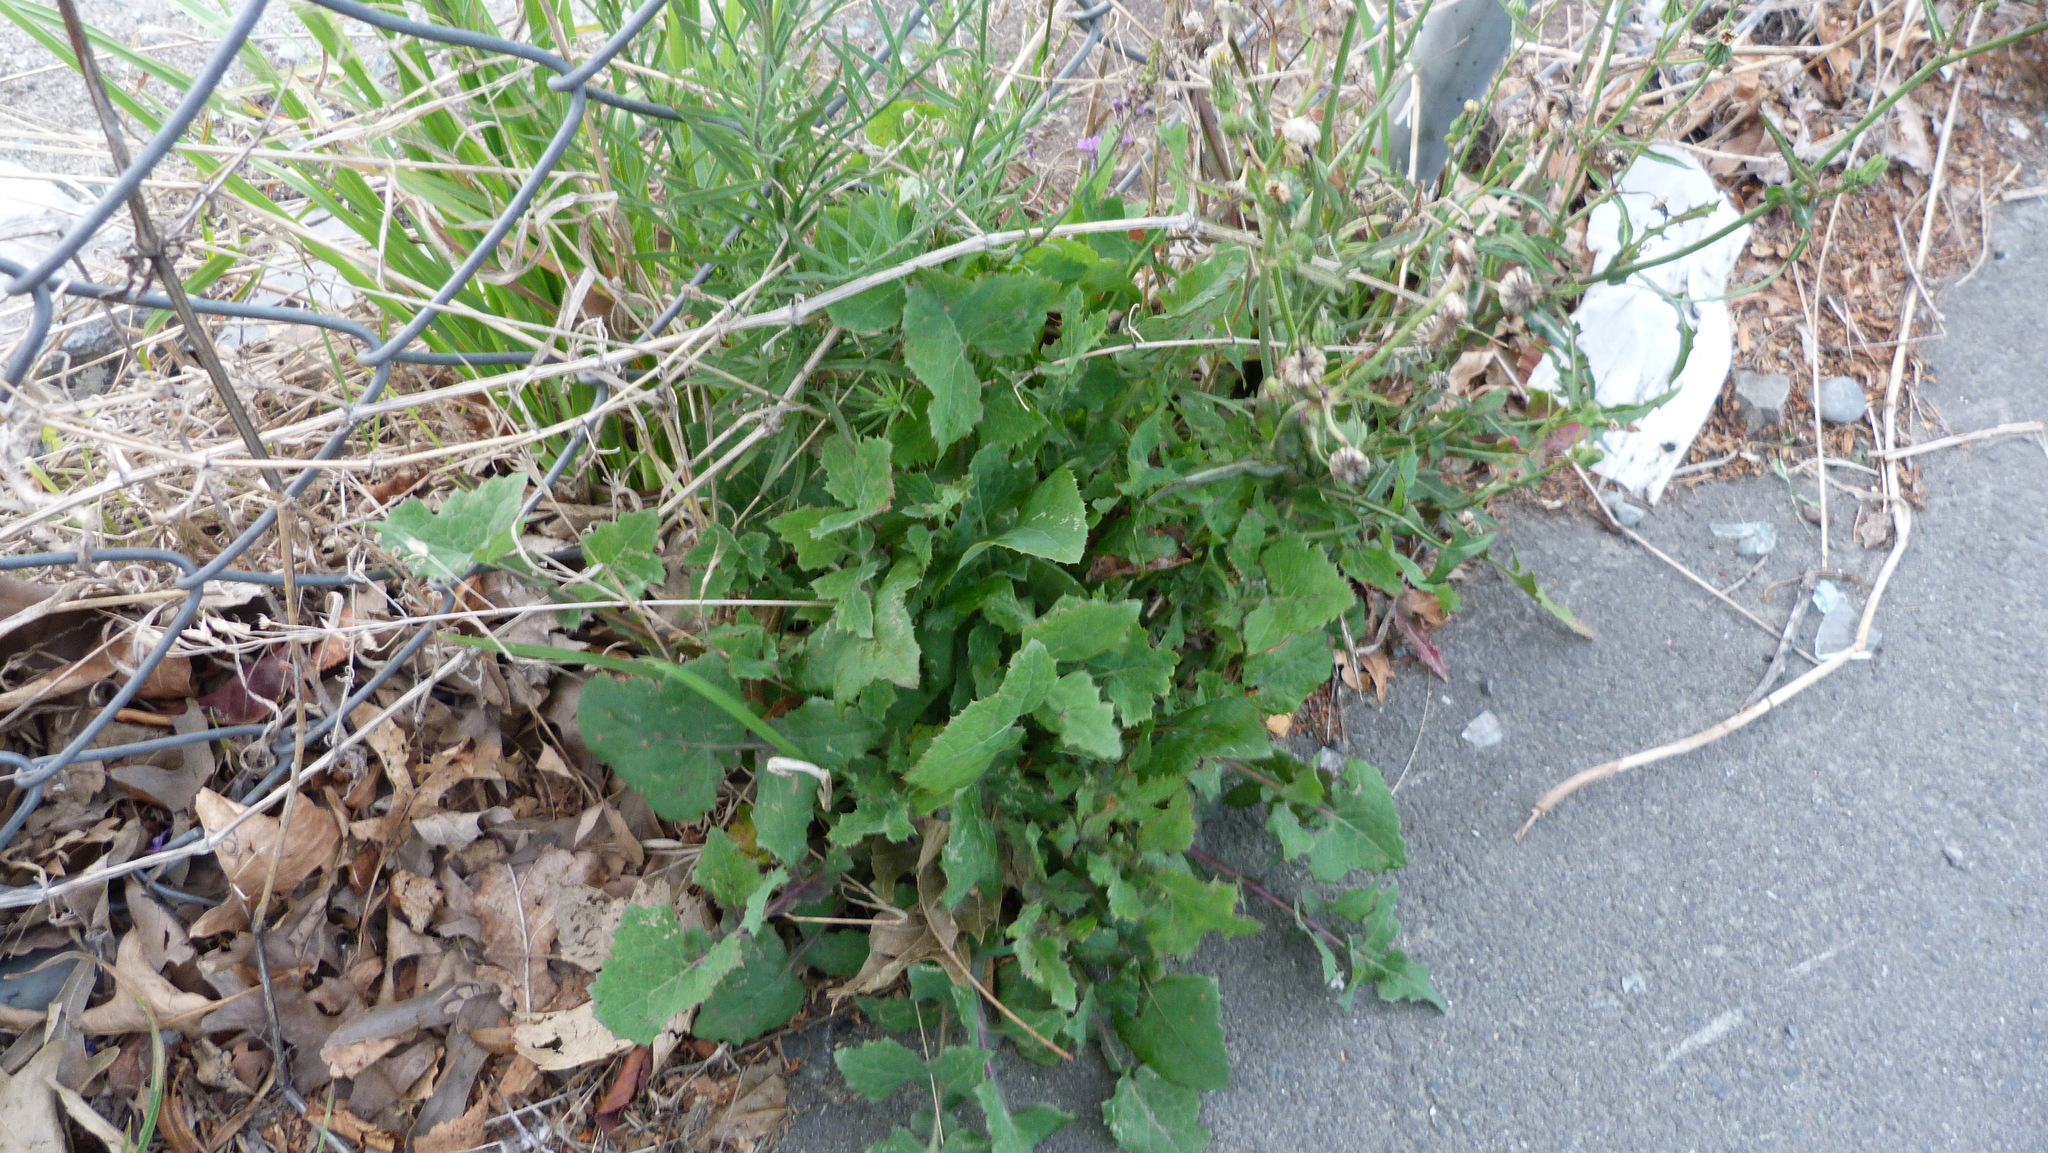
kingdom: Plantae
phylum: Tracheophyta
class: Magnoliopsida
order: Asterales
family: Asteraceae
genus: Sonchus
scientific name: Sonchus oleraceus
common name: Common sowthistle
